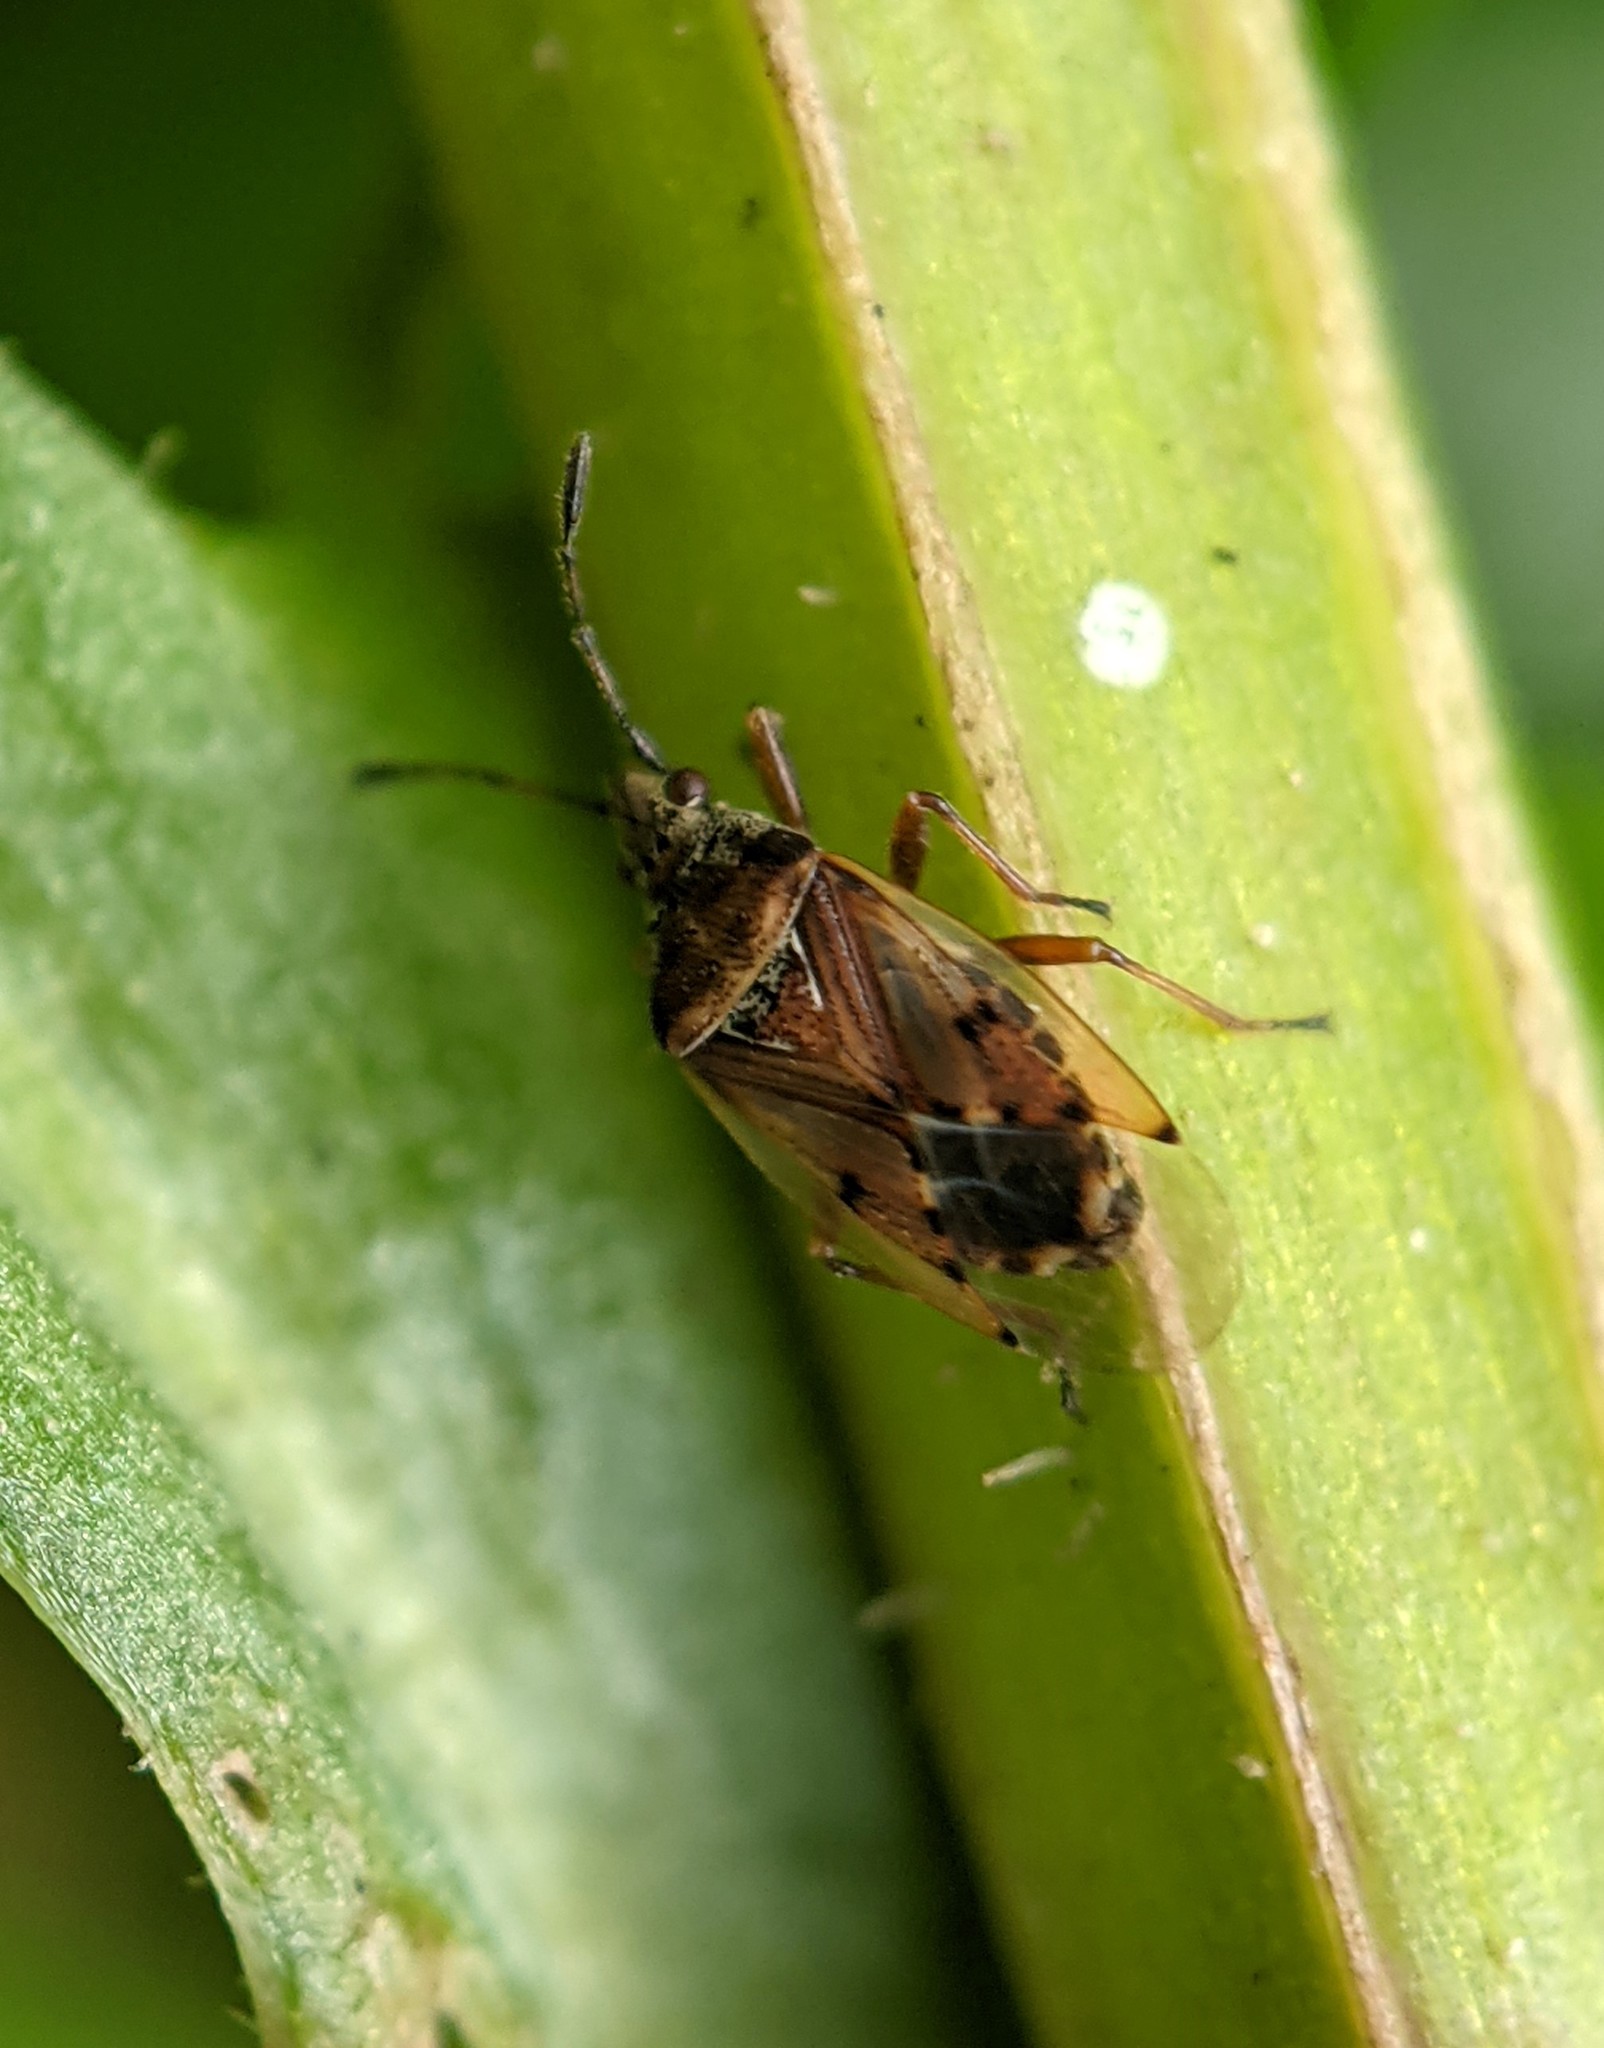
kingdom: Animalia
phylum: Arthropoda
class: Insecta
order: Hemiptera
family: Lygaeidae
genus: Kleidocerys
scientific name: Kleidocerys resedae
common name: Birch catkin bug
